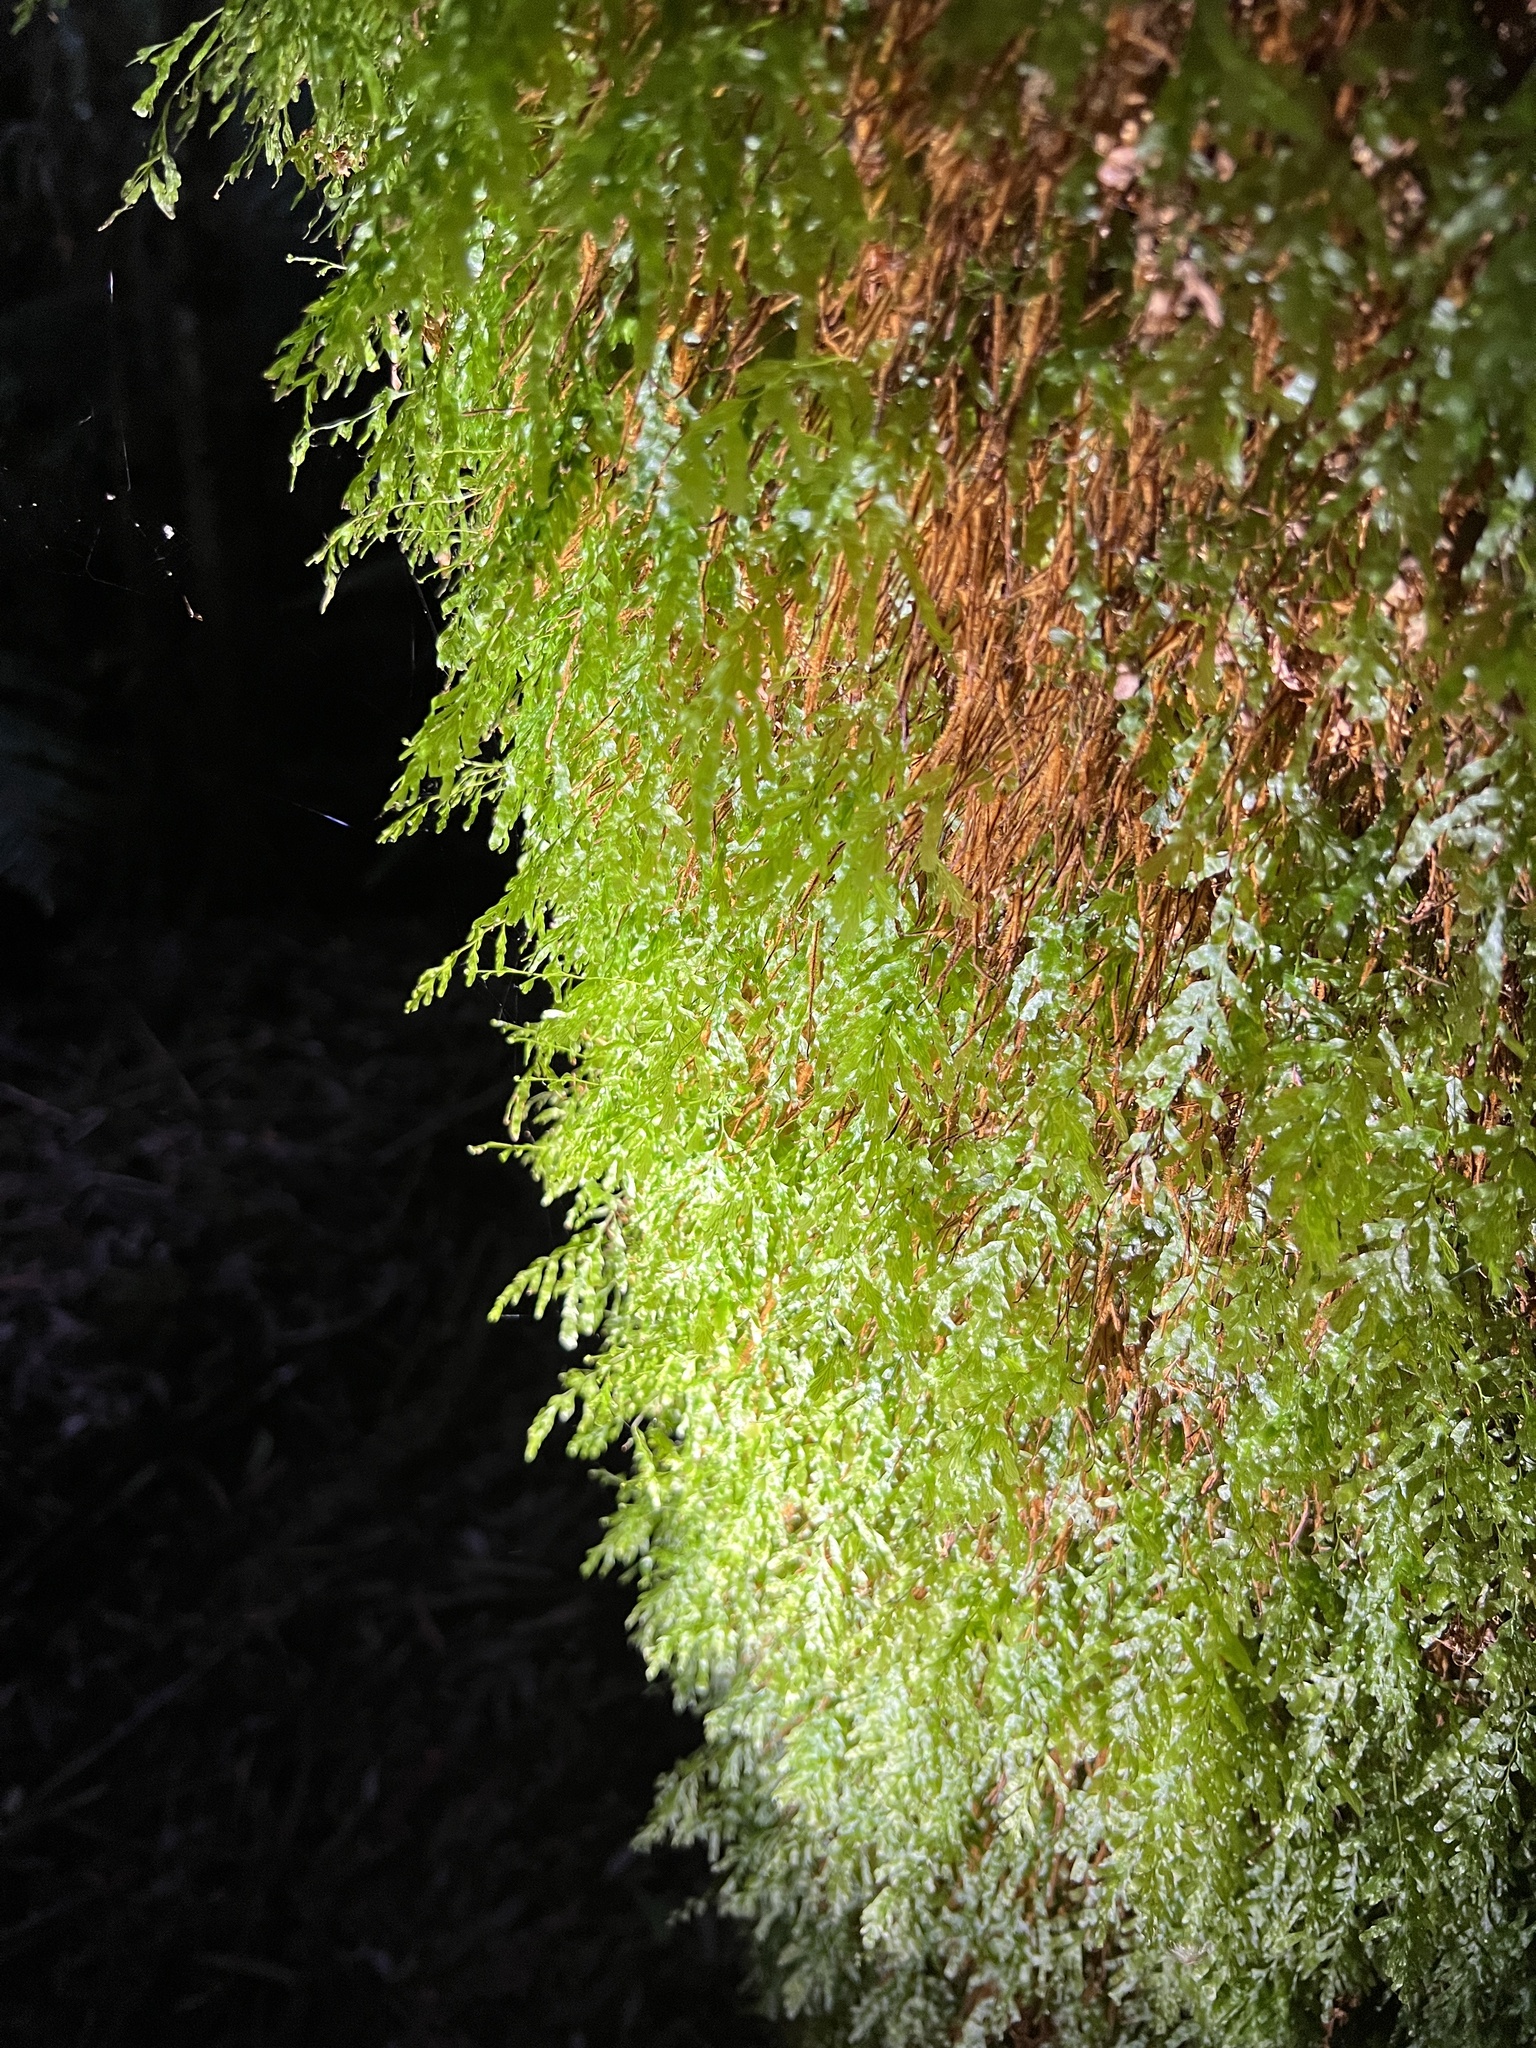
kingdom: Plantae
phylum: Tracheophyta
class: Polypodiopsida
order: Hymenophyllales
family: Hymenophyllaceae
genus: Polyphlebium
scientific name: Polyphlebium venosum
